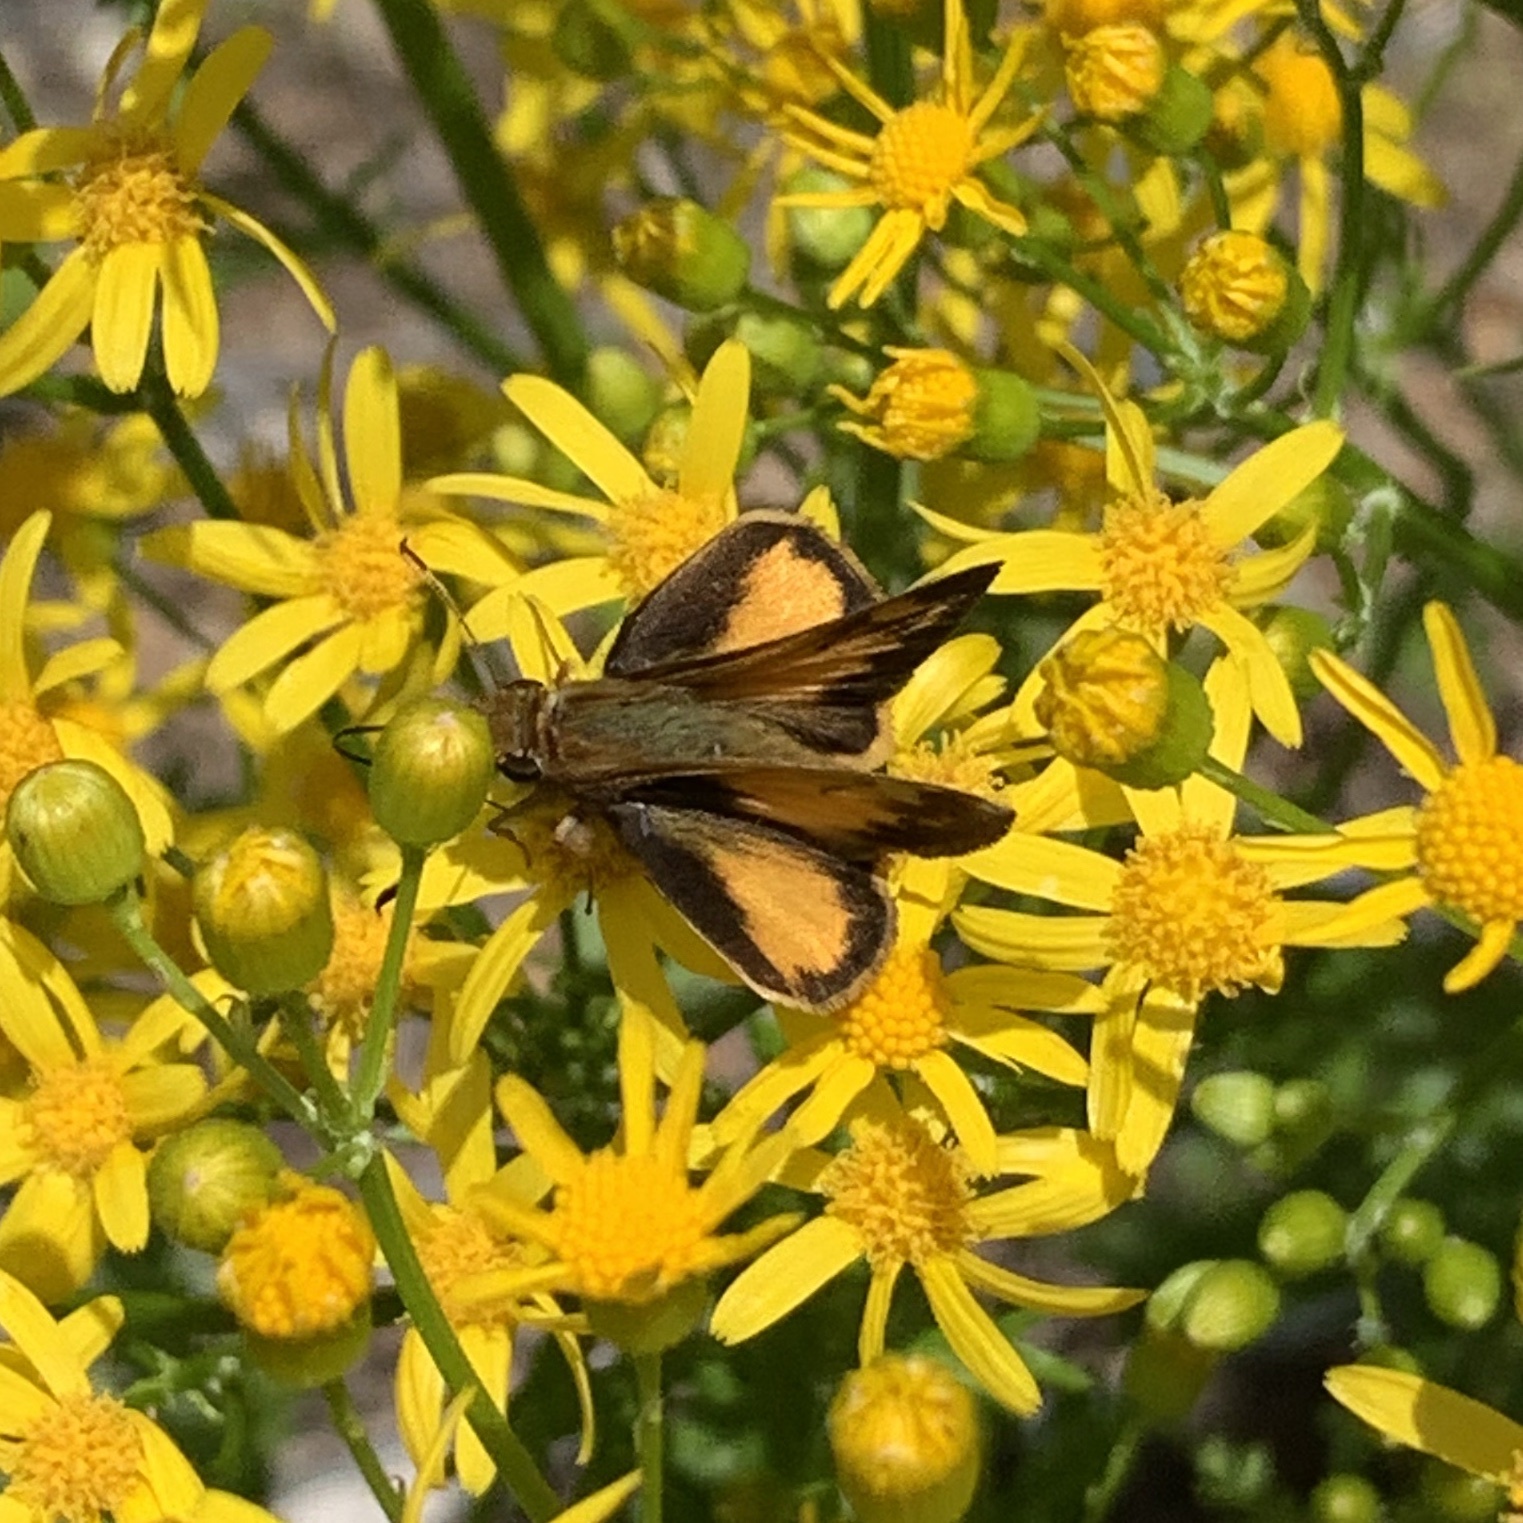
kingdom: Animalia
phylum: Arthropoda
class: Insecta
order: Lepidoptera
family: Hesperiidae
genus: Lon
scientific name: Lon zabulon
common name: Zabulon skipper
